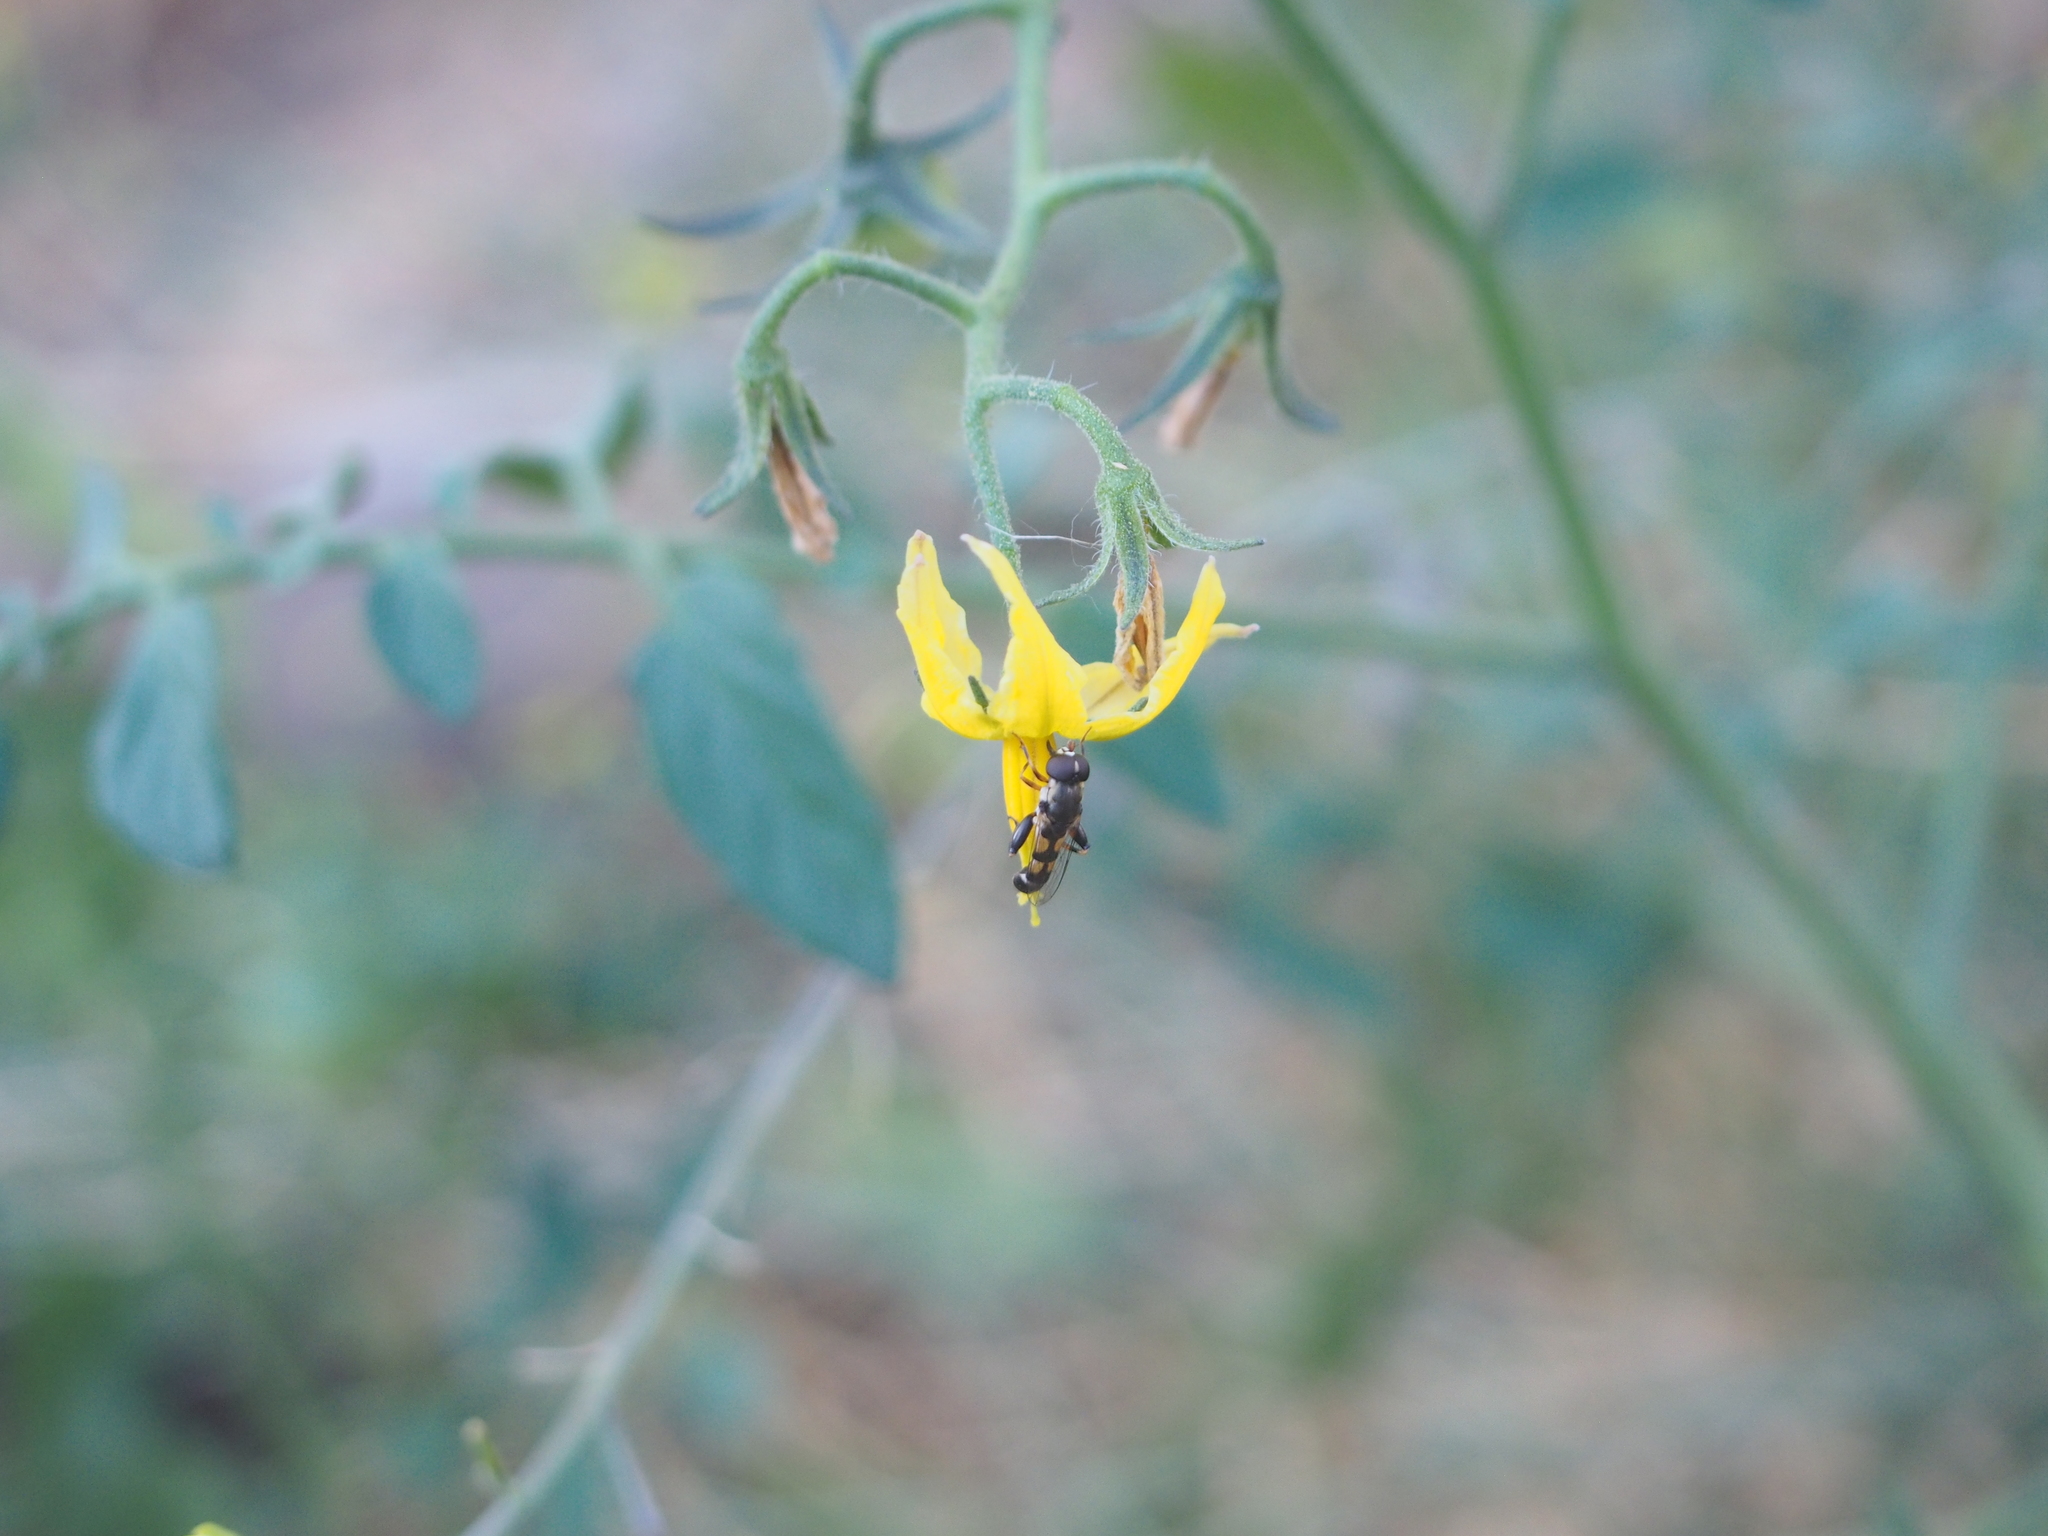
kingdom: Animalia
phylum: Arthropoda
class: Insecta
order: Diptera
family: Syrphidae
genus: Syritta
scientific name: Syritta pipiens
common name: Hover fly
